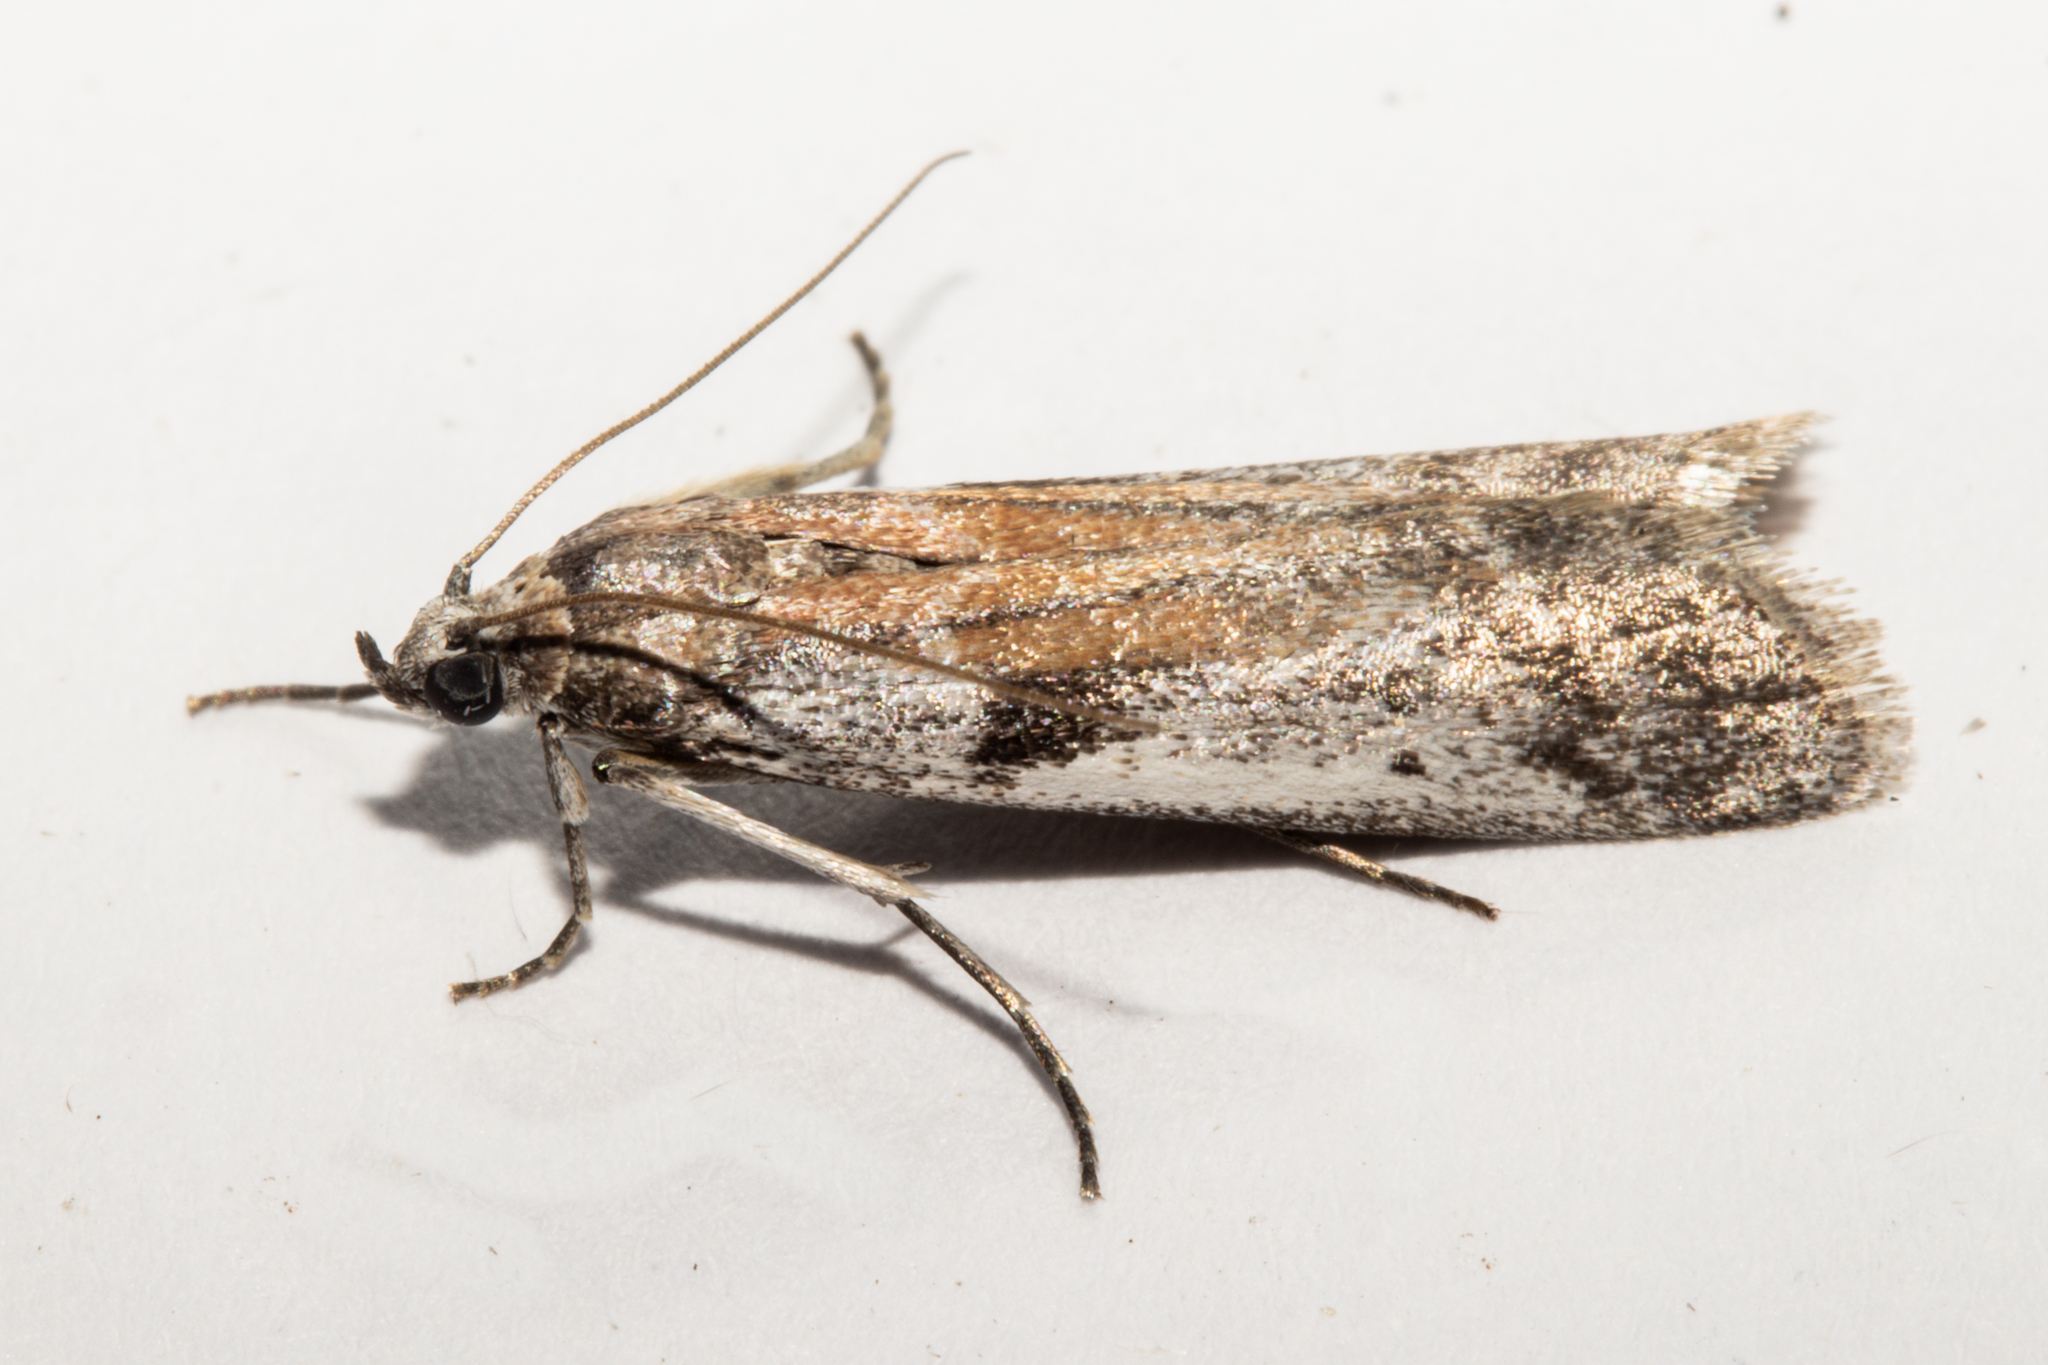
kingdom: Animalia
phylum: Arthropoda
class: Insecta
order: Lepidoptera
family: Pyralidae
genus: Patagoniodes
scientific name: Patagoniodes farinaria
